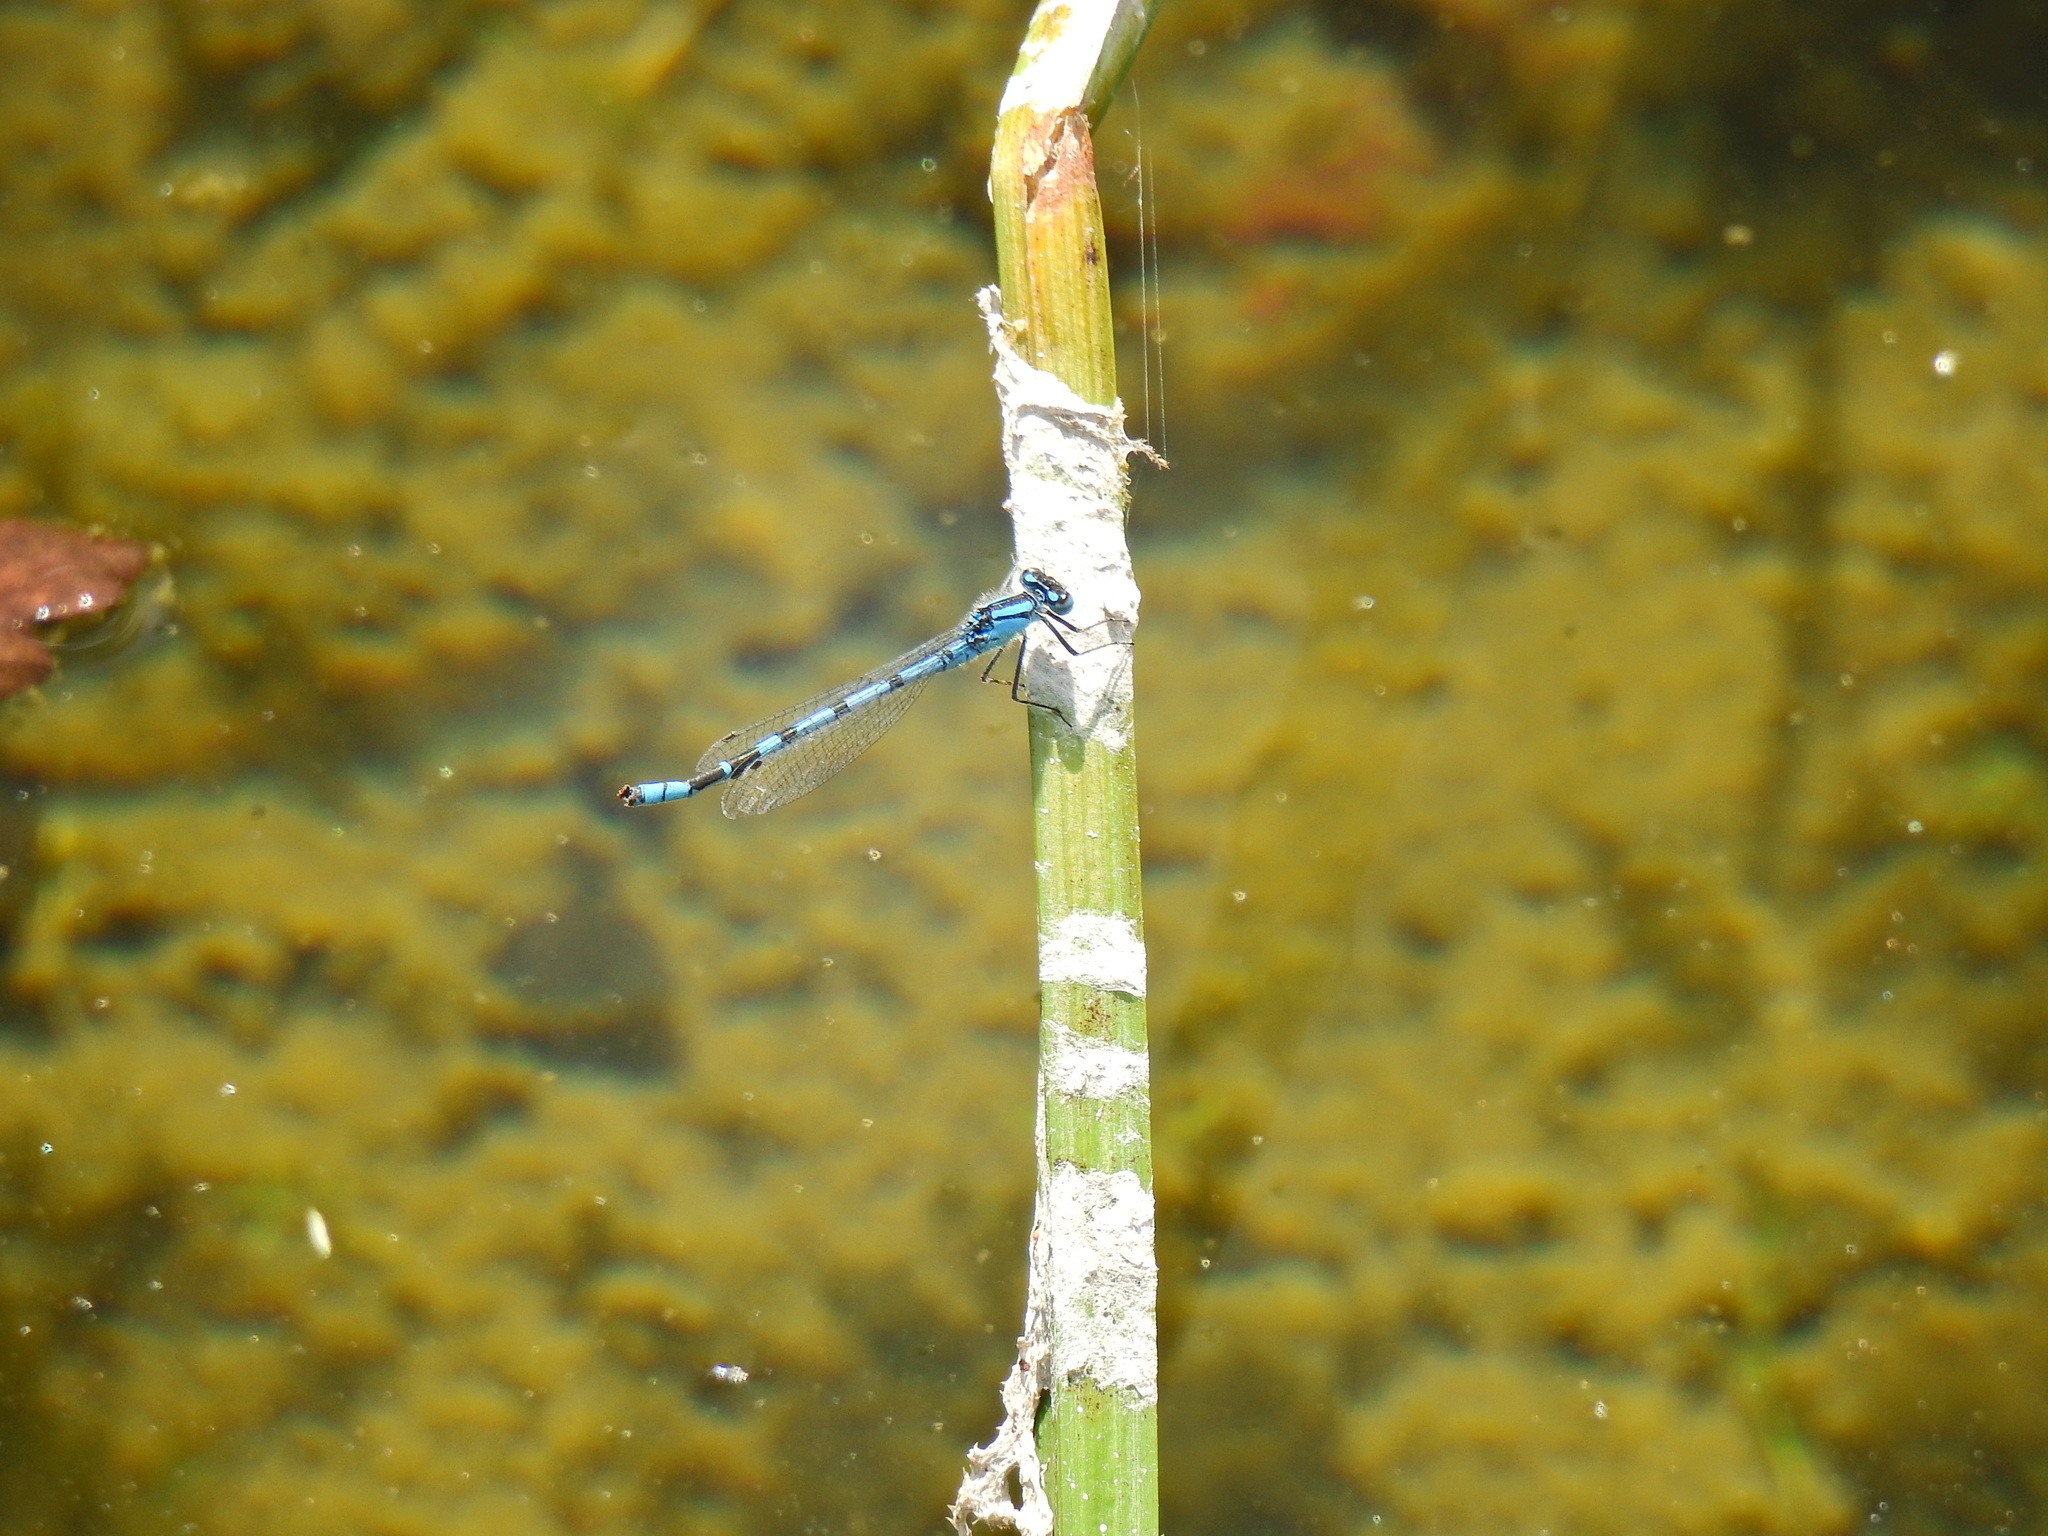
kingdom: Animalia
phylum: Arthropoda
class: Insecta
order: Odonata
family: Coenagrionidae
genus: Enallagma
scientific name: Enallagma cyathigerum
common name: Common blue damselfly
